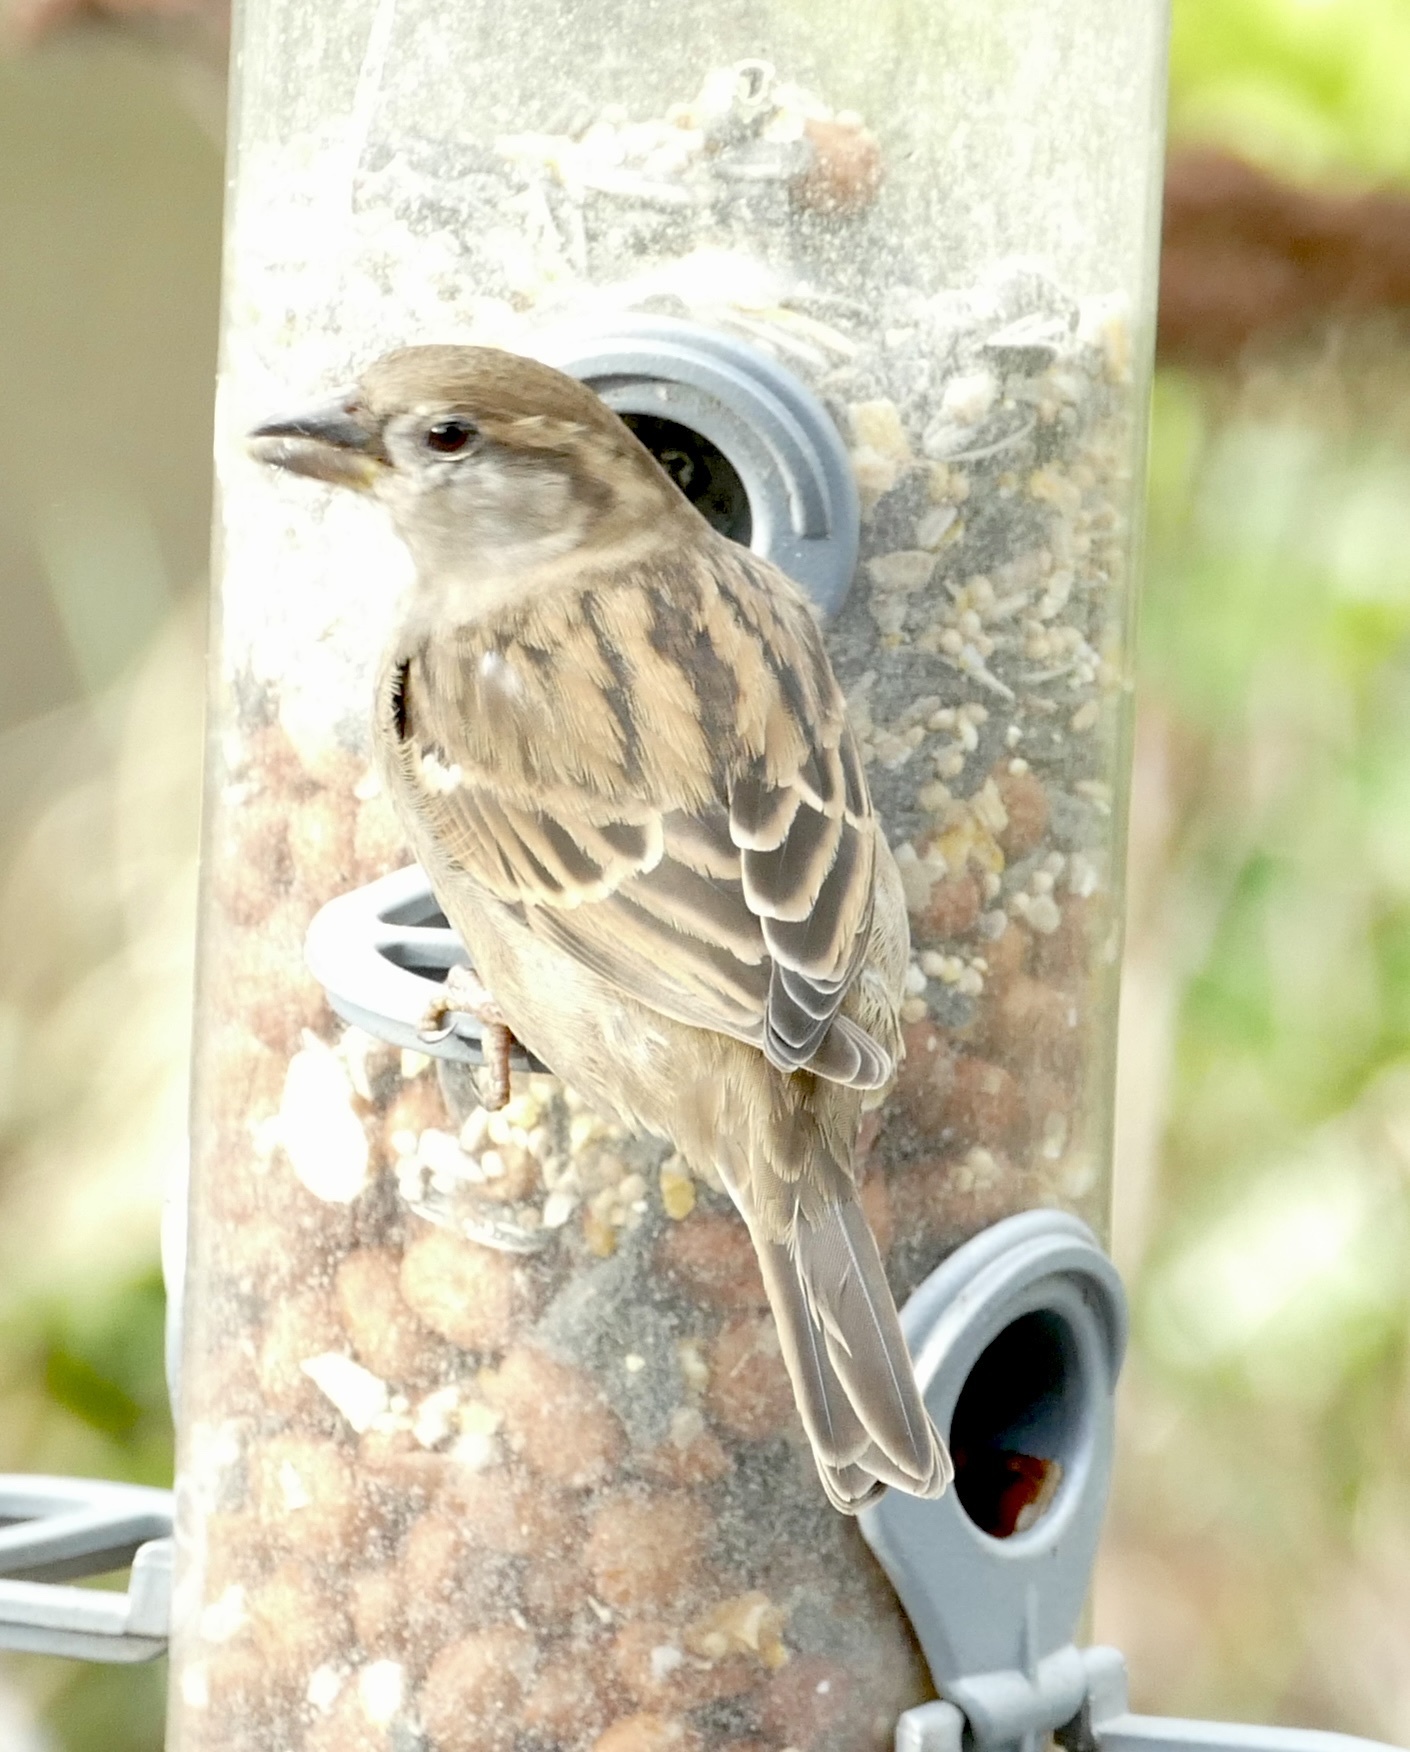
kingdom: Animalia
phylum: Chordata
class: Aves
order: Passeriformes
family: Passeridae
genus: Passer
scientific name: Passer domesticus
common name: House sparrow
